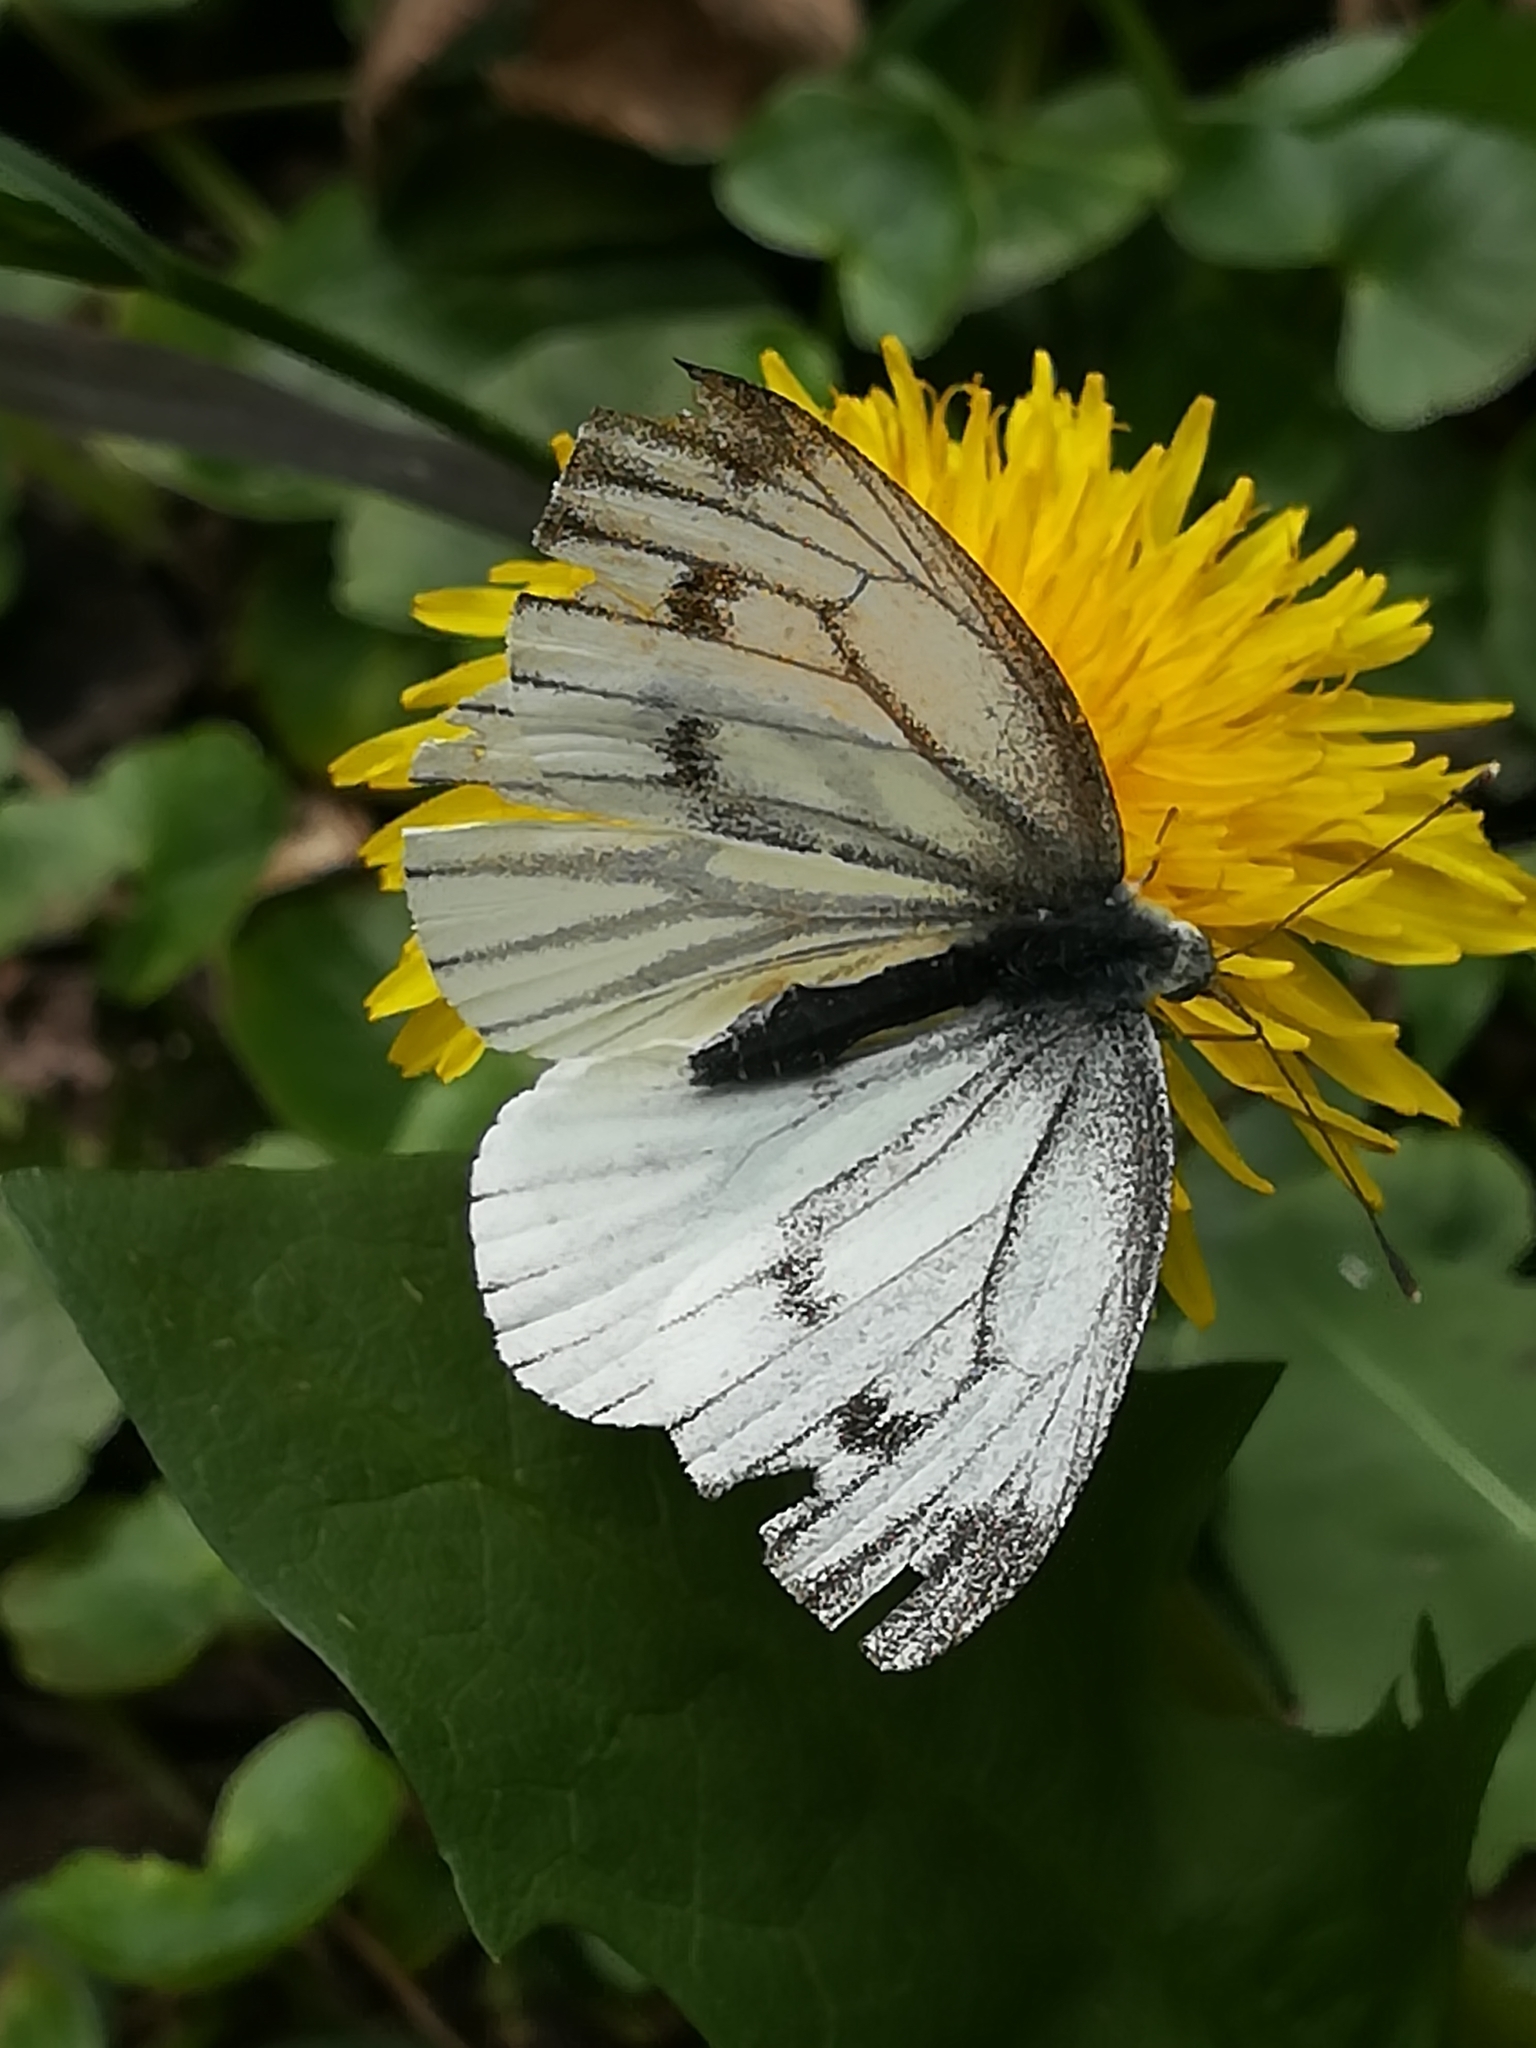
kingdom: Animalia
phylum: Arthropoda
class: Insecta
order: Lepidoptera
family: Pieridae
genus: Pieris
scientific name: Pieris napi
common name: Green-veined white
